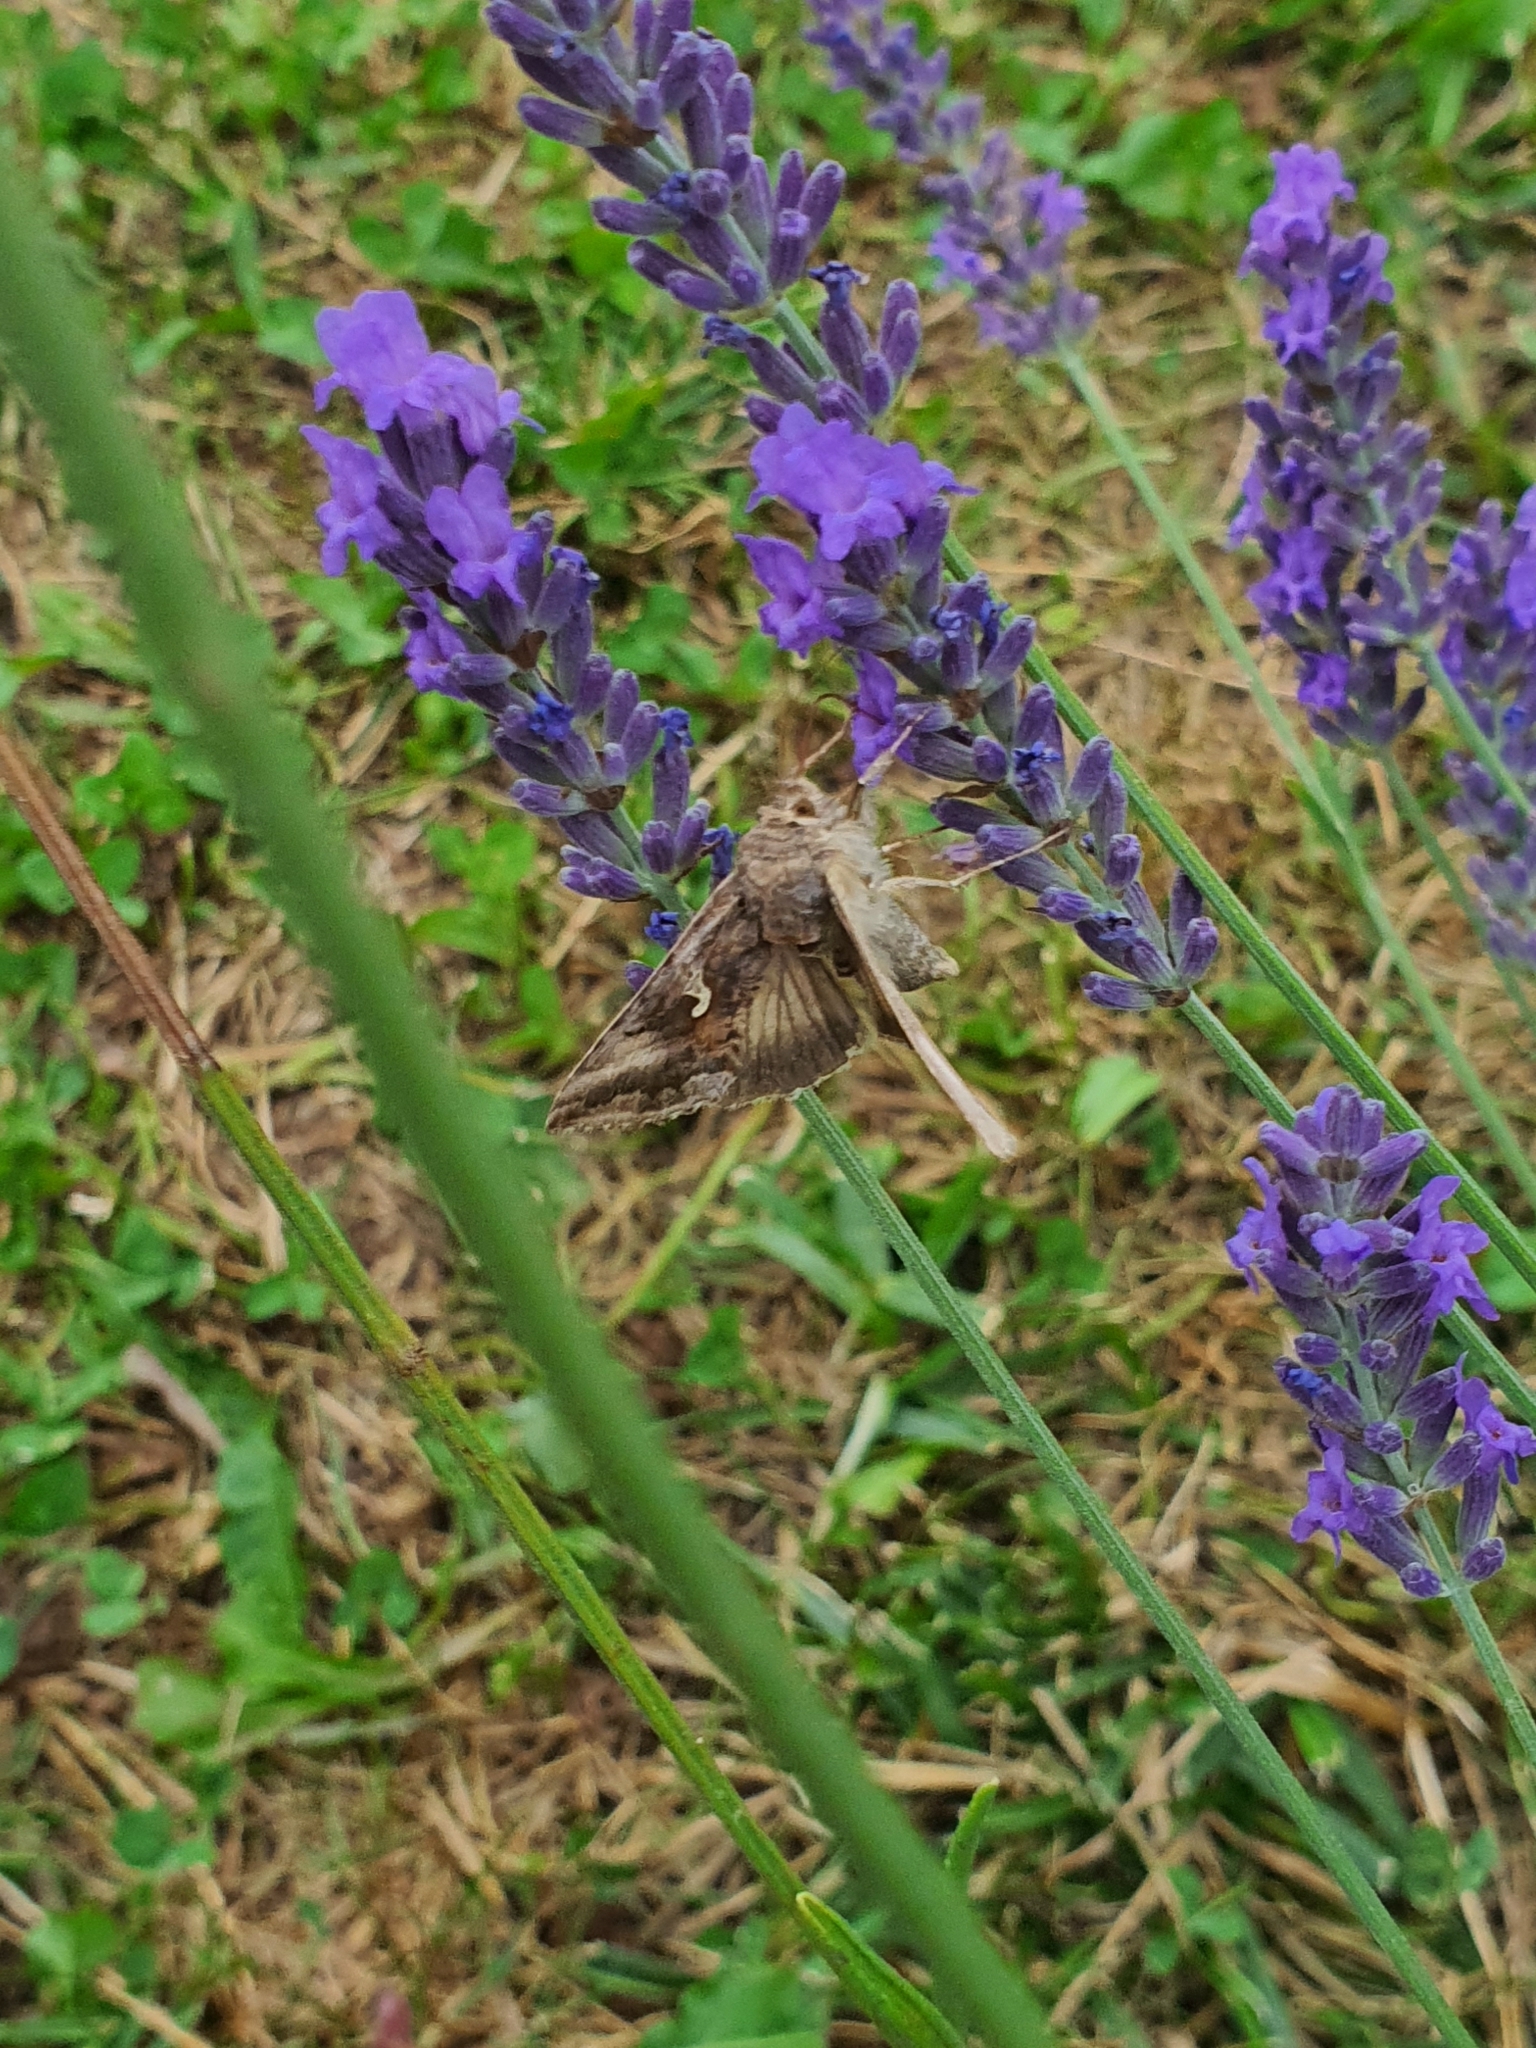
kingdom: Animalia
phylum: Arthropoda
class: Insecta
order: Lepidoptera
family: Noctuidae
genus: Autographa
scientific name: Autographa gamma
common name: Silver y
